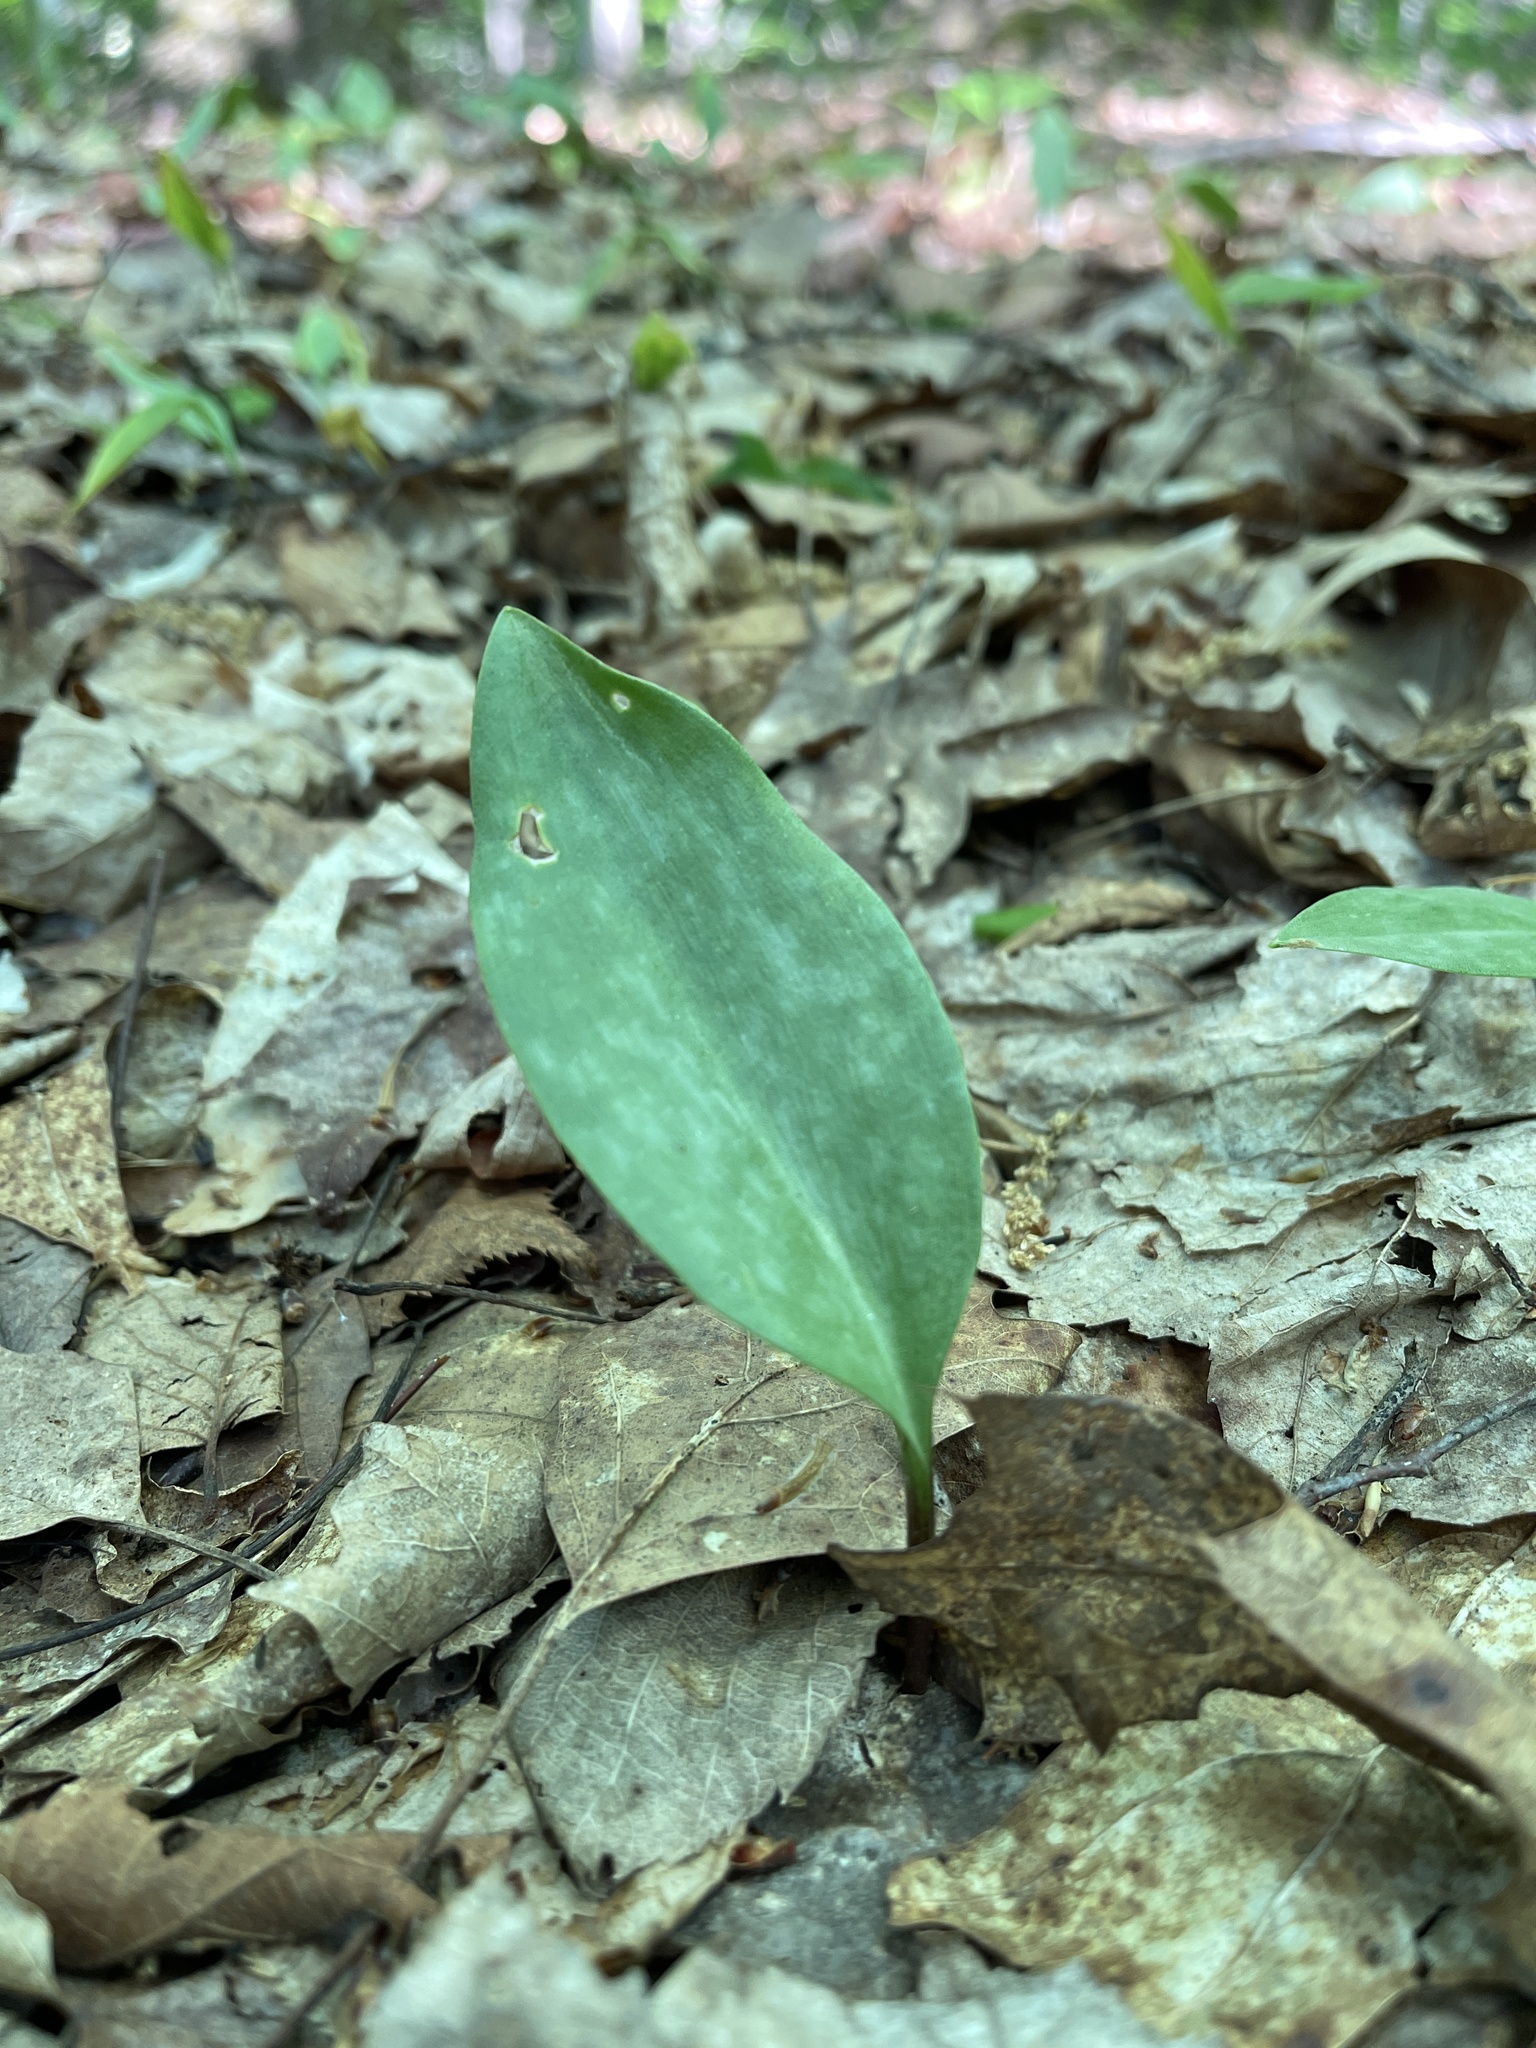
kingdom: Plantae
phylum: Tracheophyta
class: Liliopsida
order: Liliales
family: Liliaceae
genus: Erythronium
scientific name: Erythronium americanum
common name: Yellow adder's-tongue
